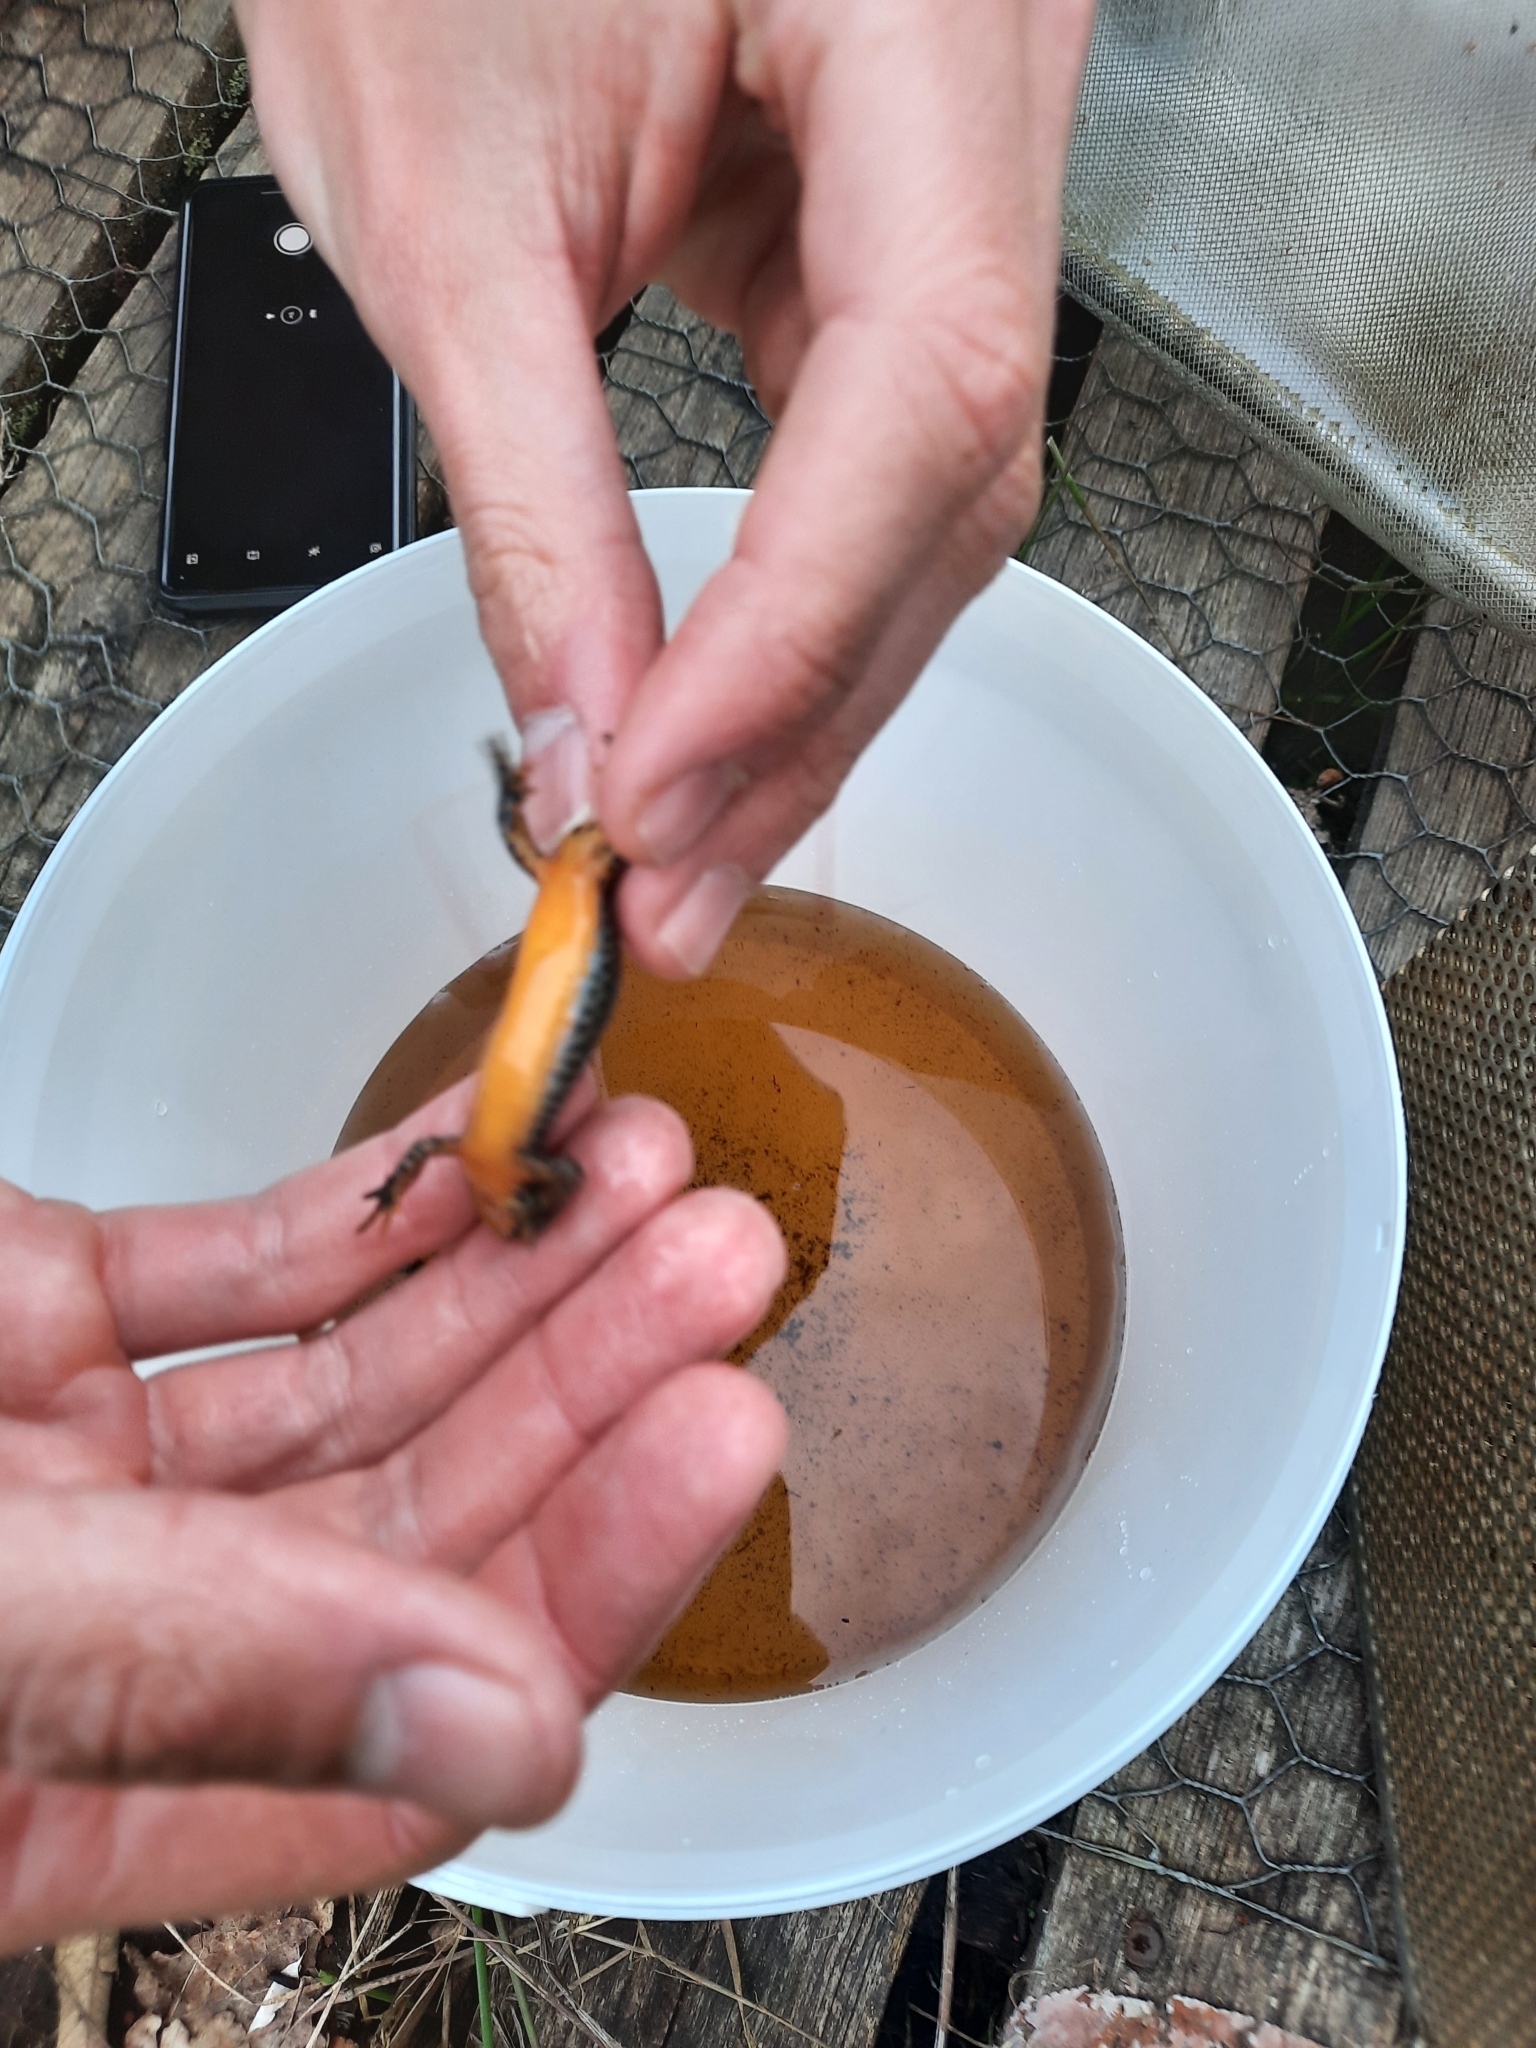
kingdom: Animalia
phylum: Chordata
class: Amphibia
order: Caudata
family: Salamandridae
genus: Ichthyosaura
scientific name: Ichthyosaura alpestris
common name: Alpine newt
